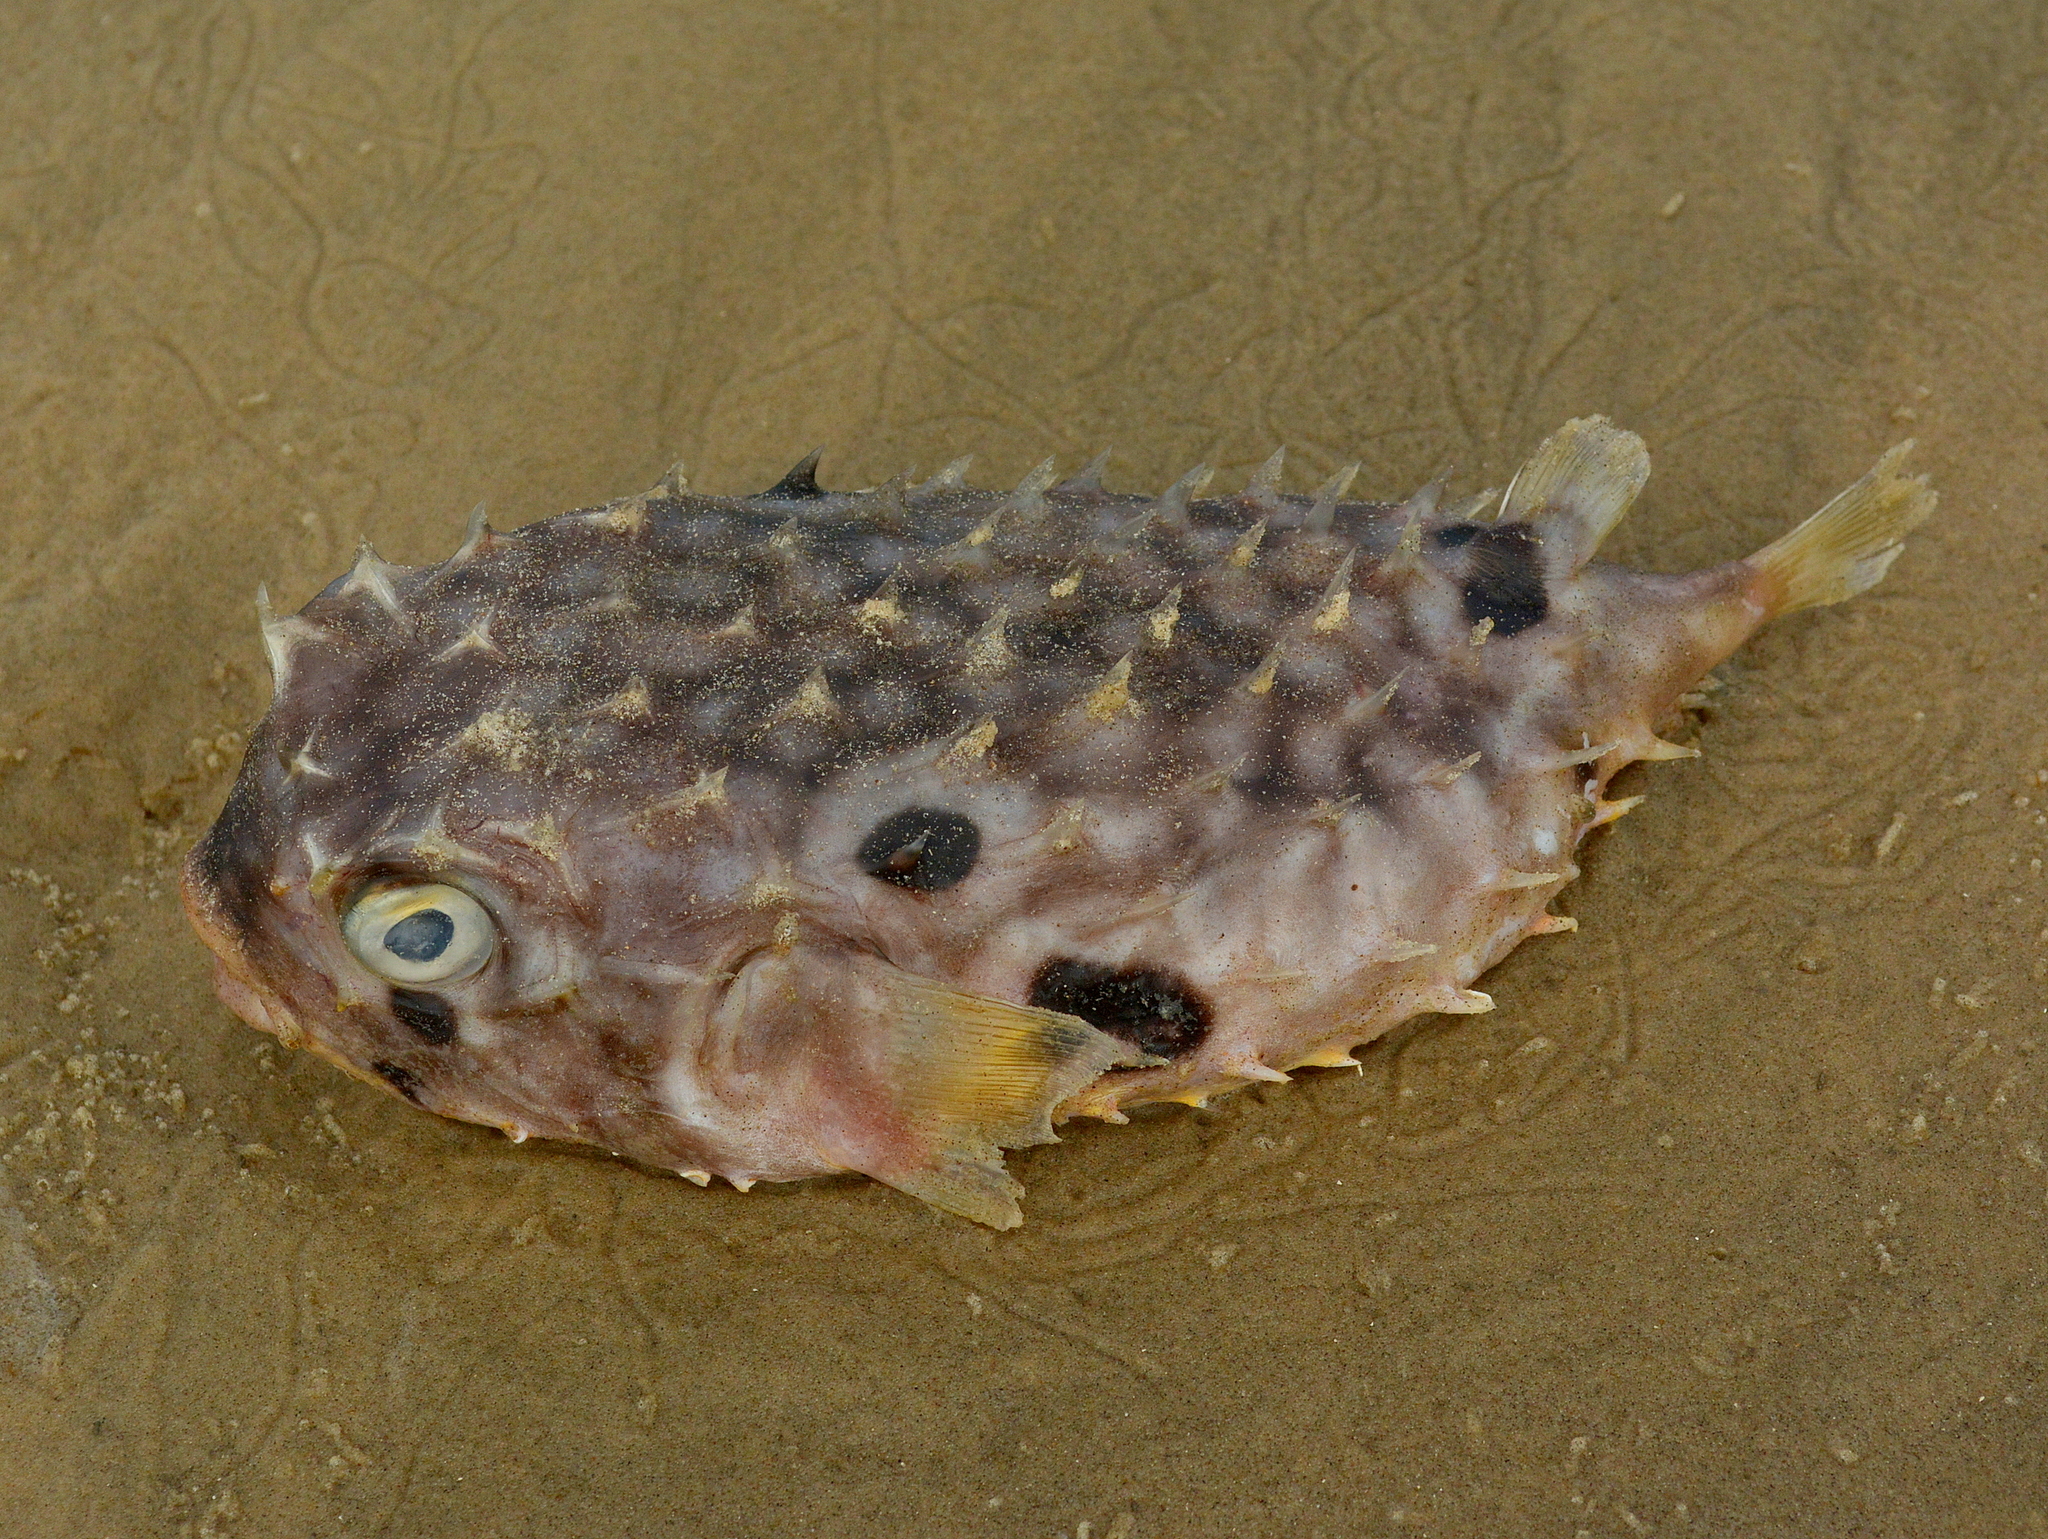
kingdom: Animalia
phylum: Chordata
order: Tetraodontiformes
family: Diodontidae
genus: Chilomycterus
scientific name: Chilomycterus spinosus
